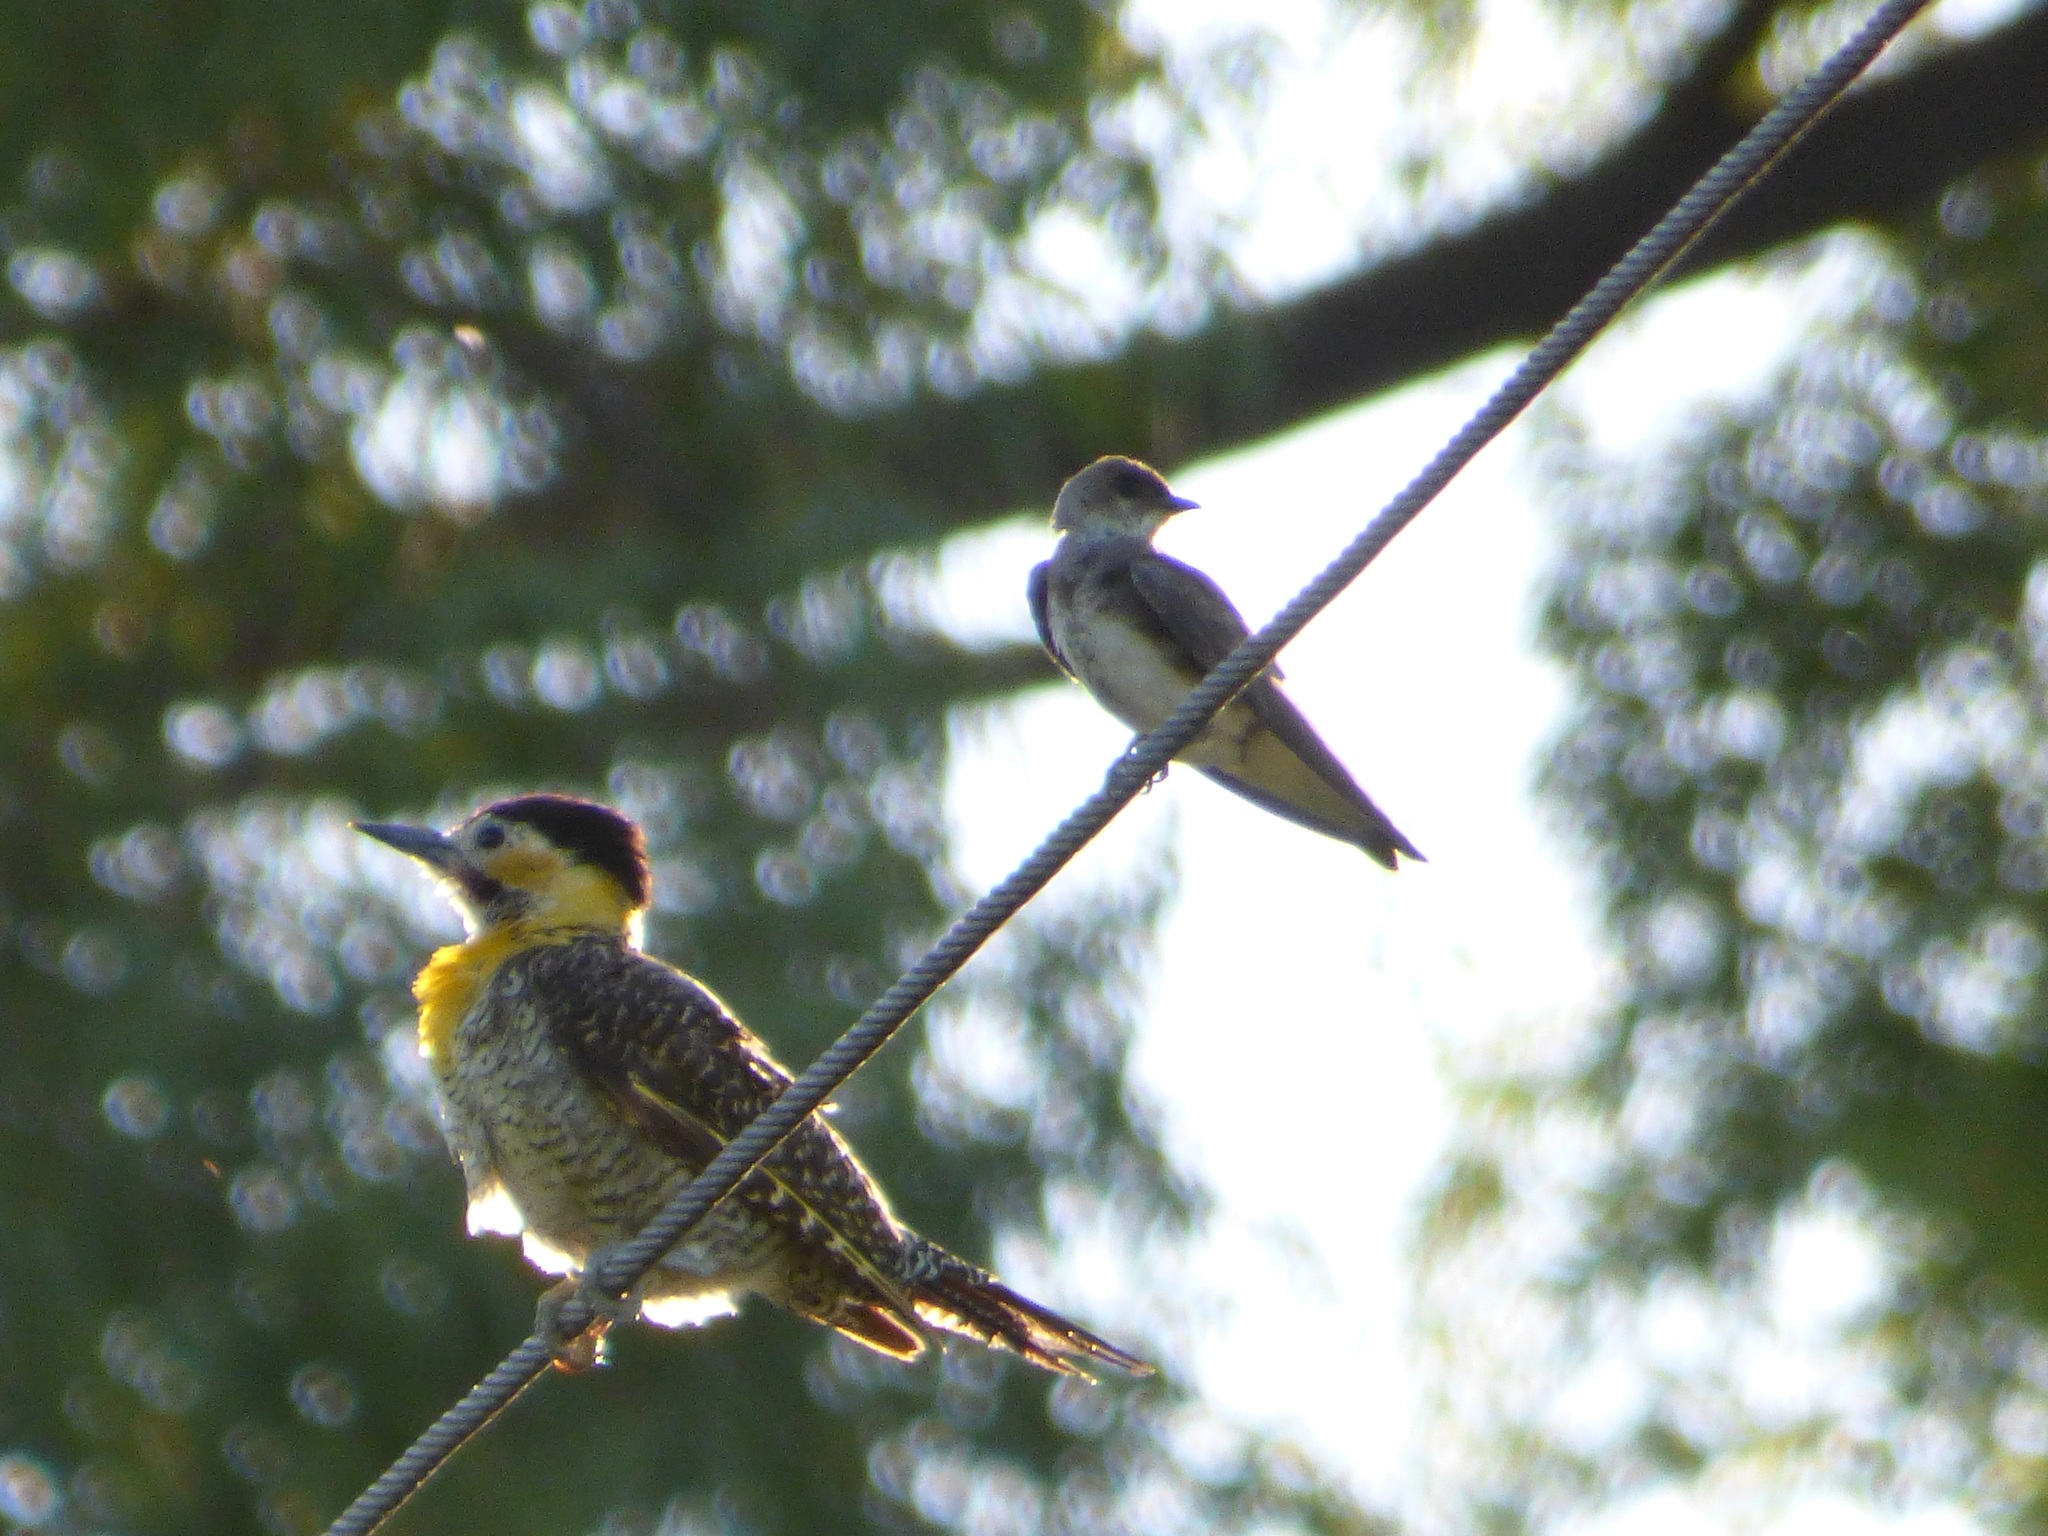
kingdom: Animalia
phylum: Chordata
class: Aves
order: Piciformes
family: Picidae
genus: Colaptes
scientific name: Colaptes campestris
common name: Campo flicker
